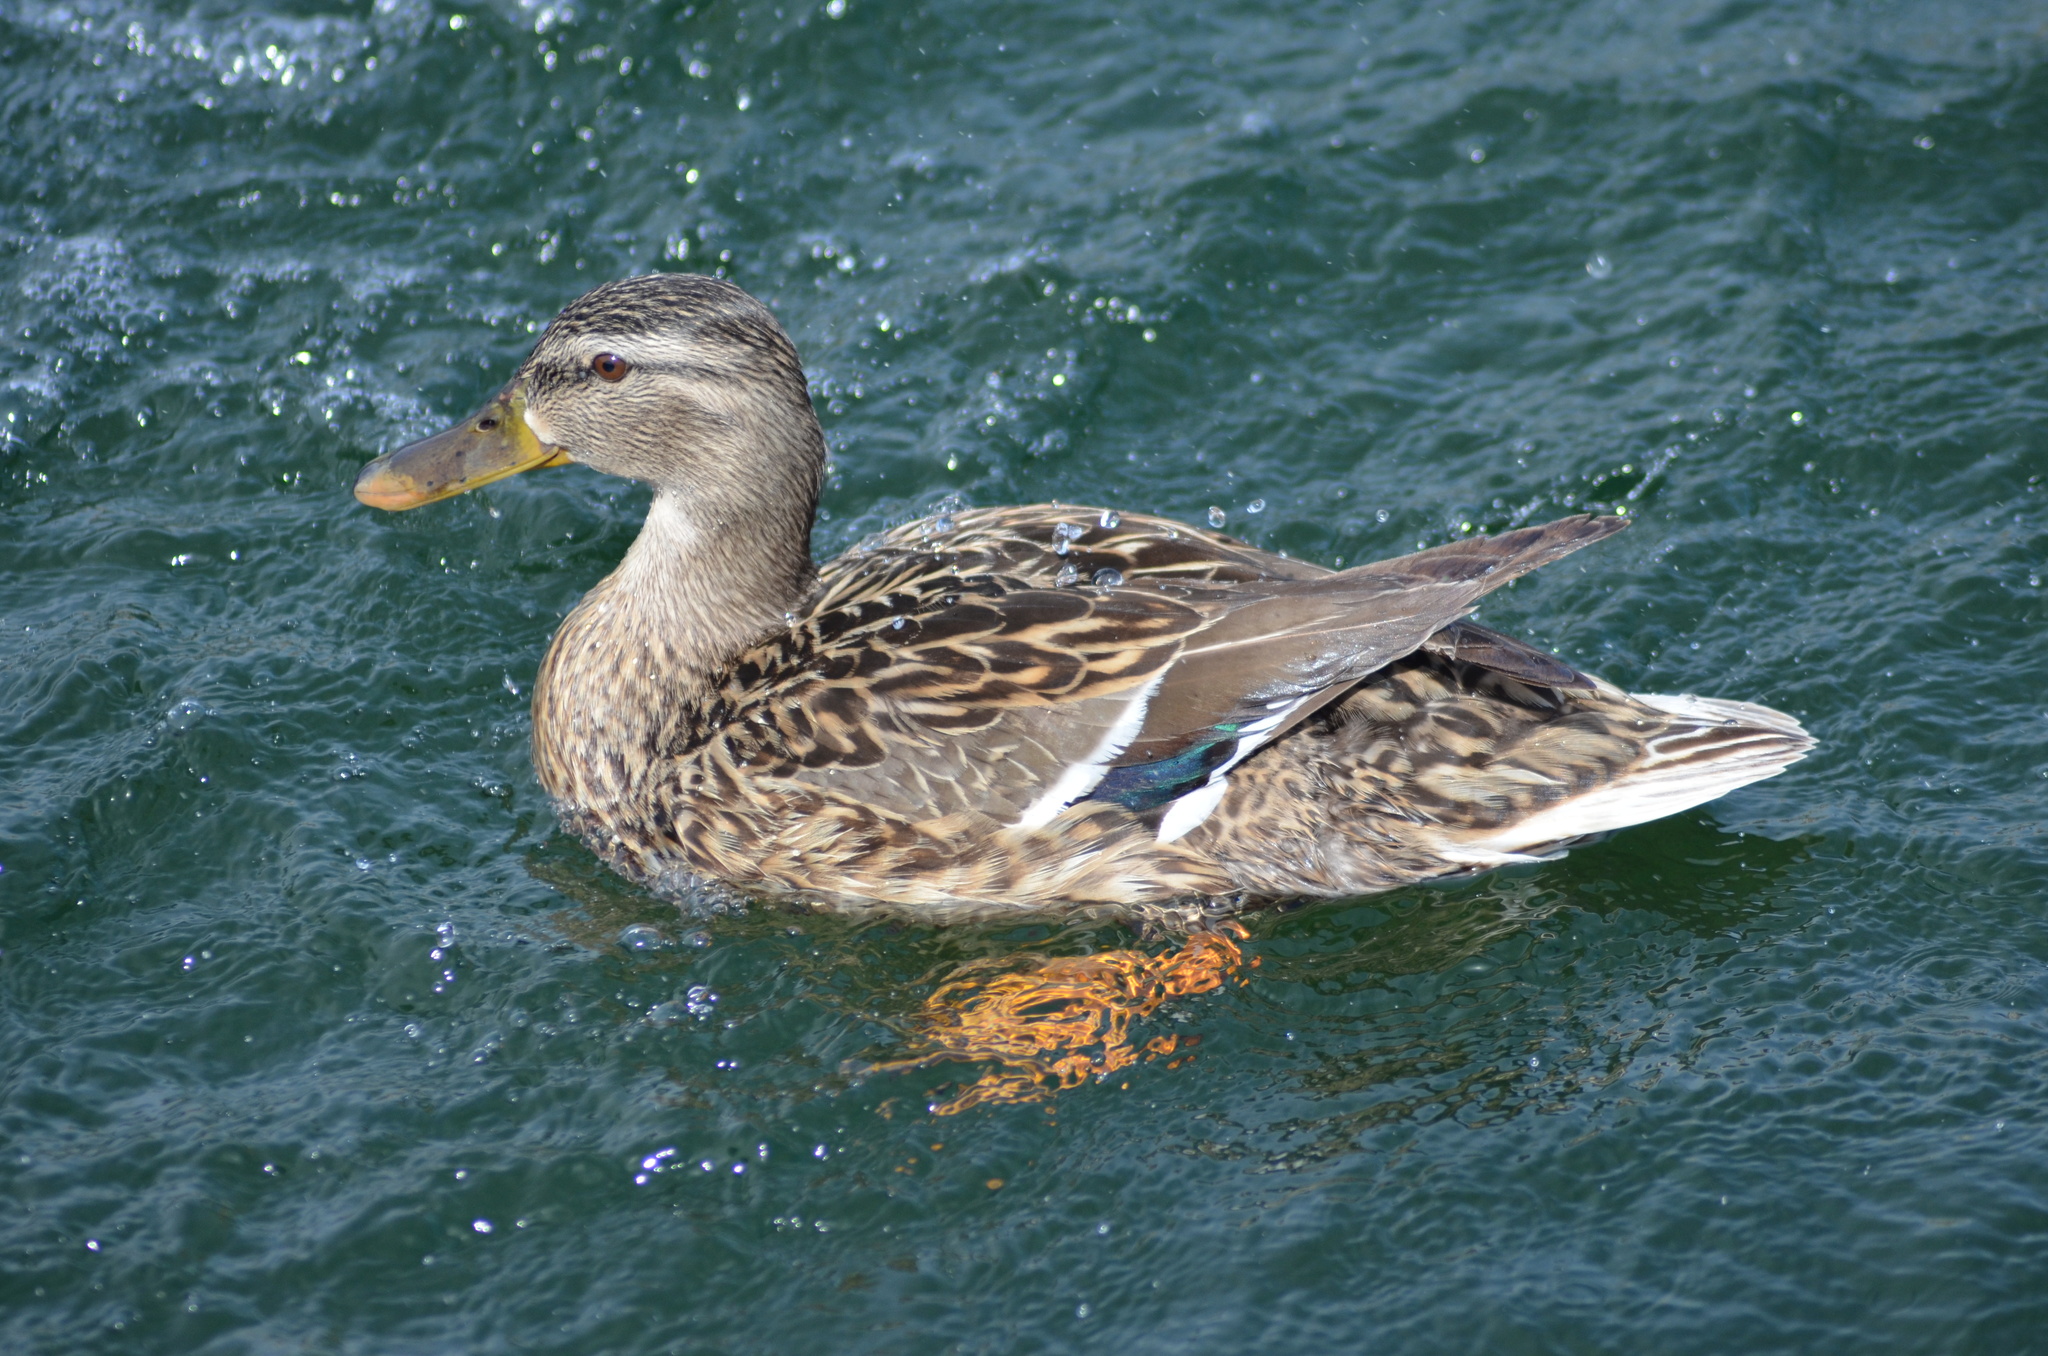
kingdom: Animalia
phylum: Chordata
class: Aves
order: Anseriformes
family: Anatidae
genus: Anas
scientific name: Anas platyrhynchos
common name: Mallard
